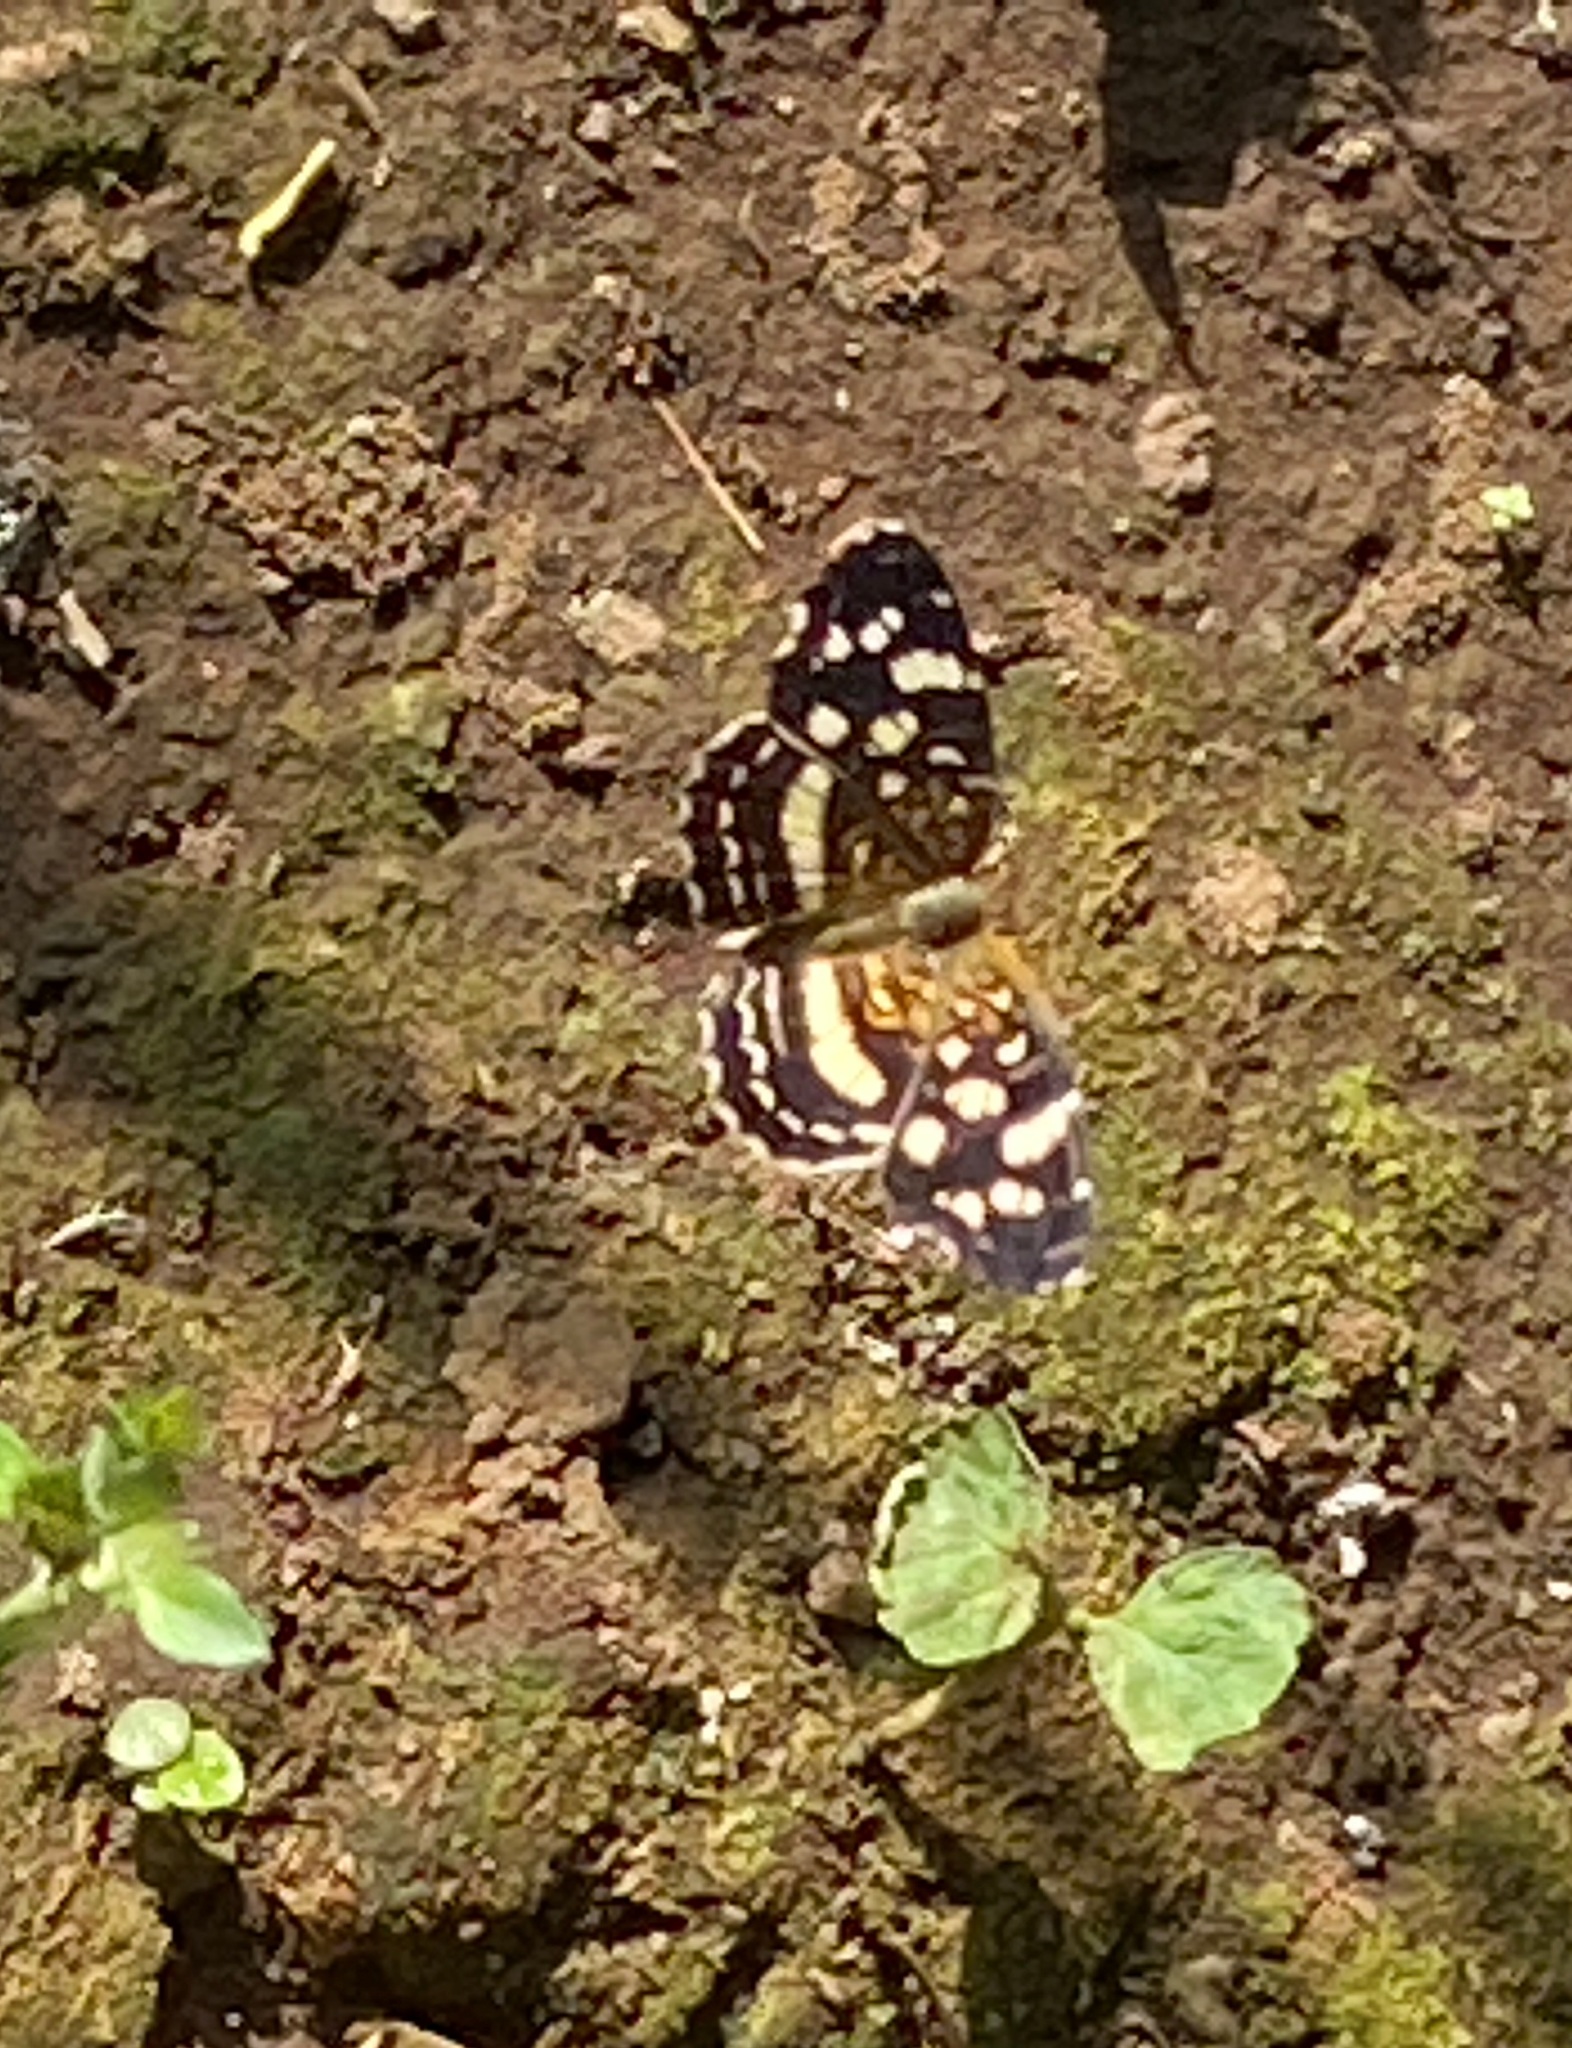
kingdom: Animalia
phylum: Arthropoda
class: Insecta
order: Lepidoptera
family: Nymphalidae
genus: Anthanassa
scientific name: Anthanassa tulcis
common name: Pale-banded crescent
